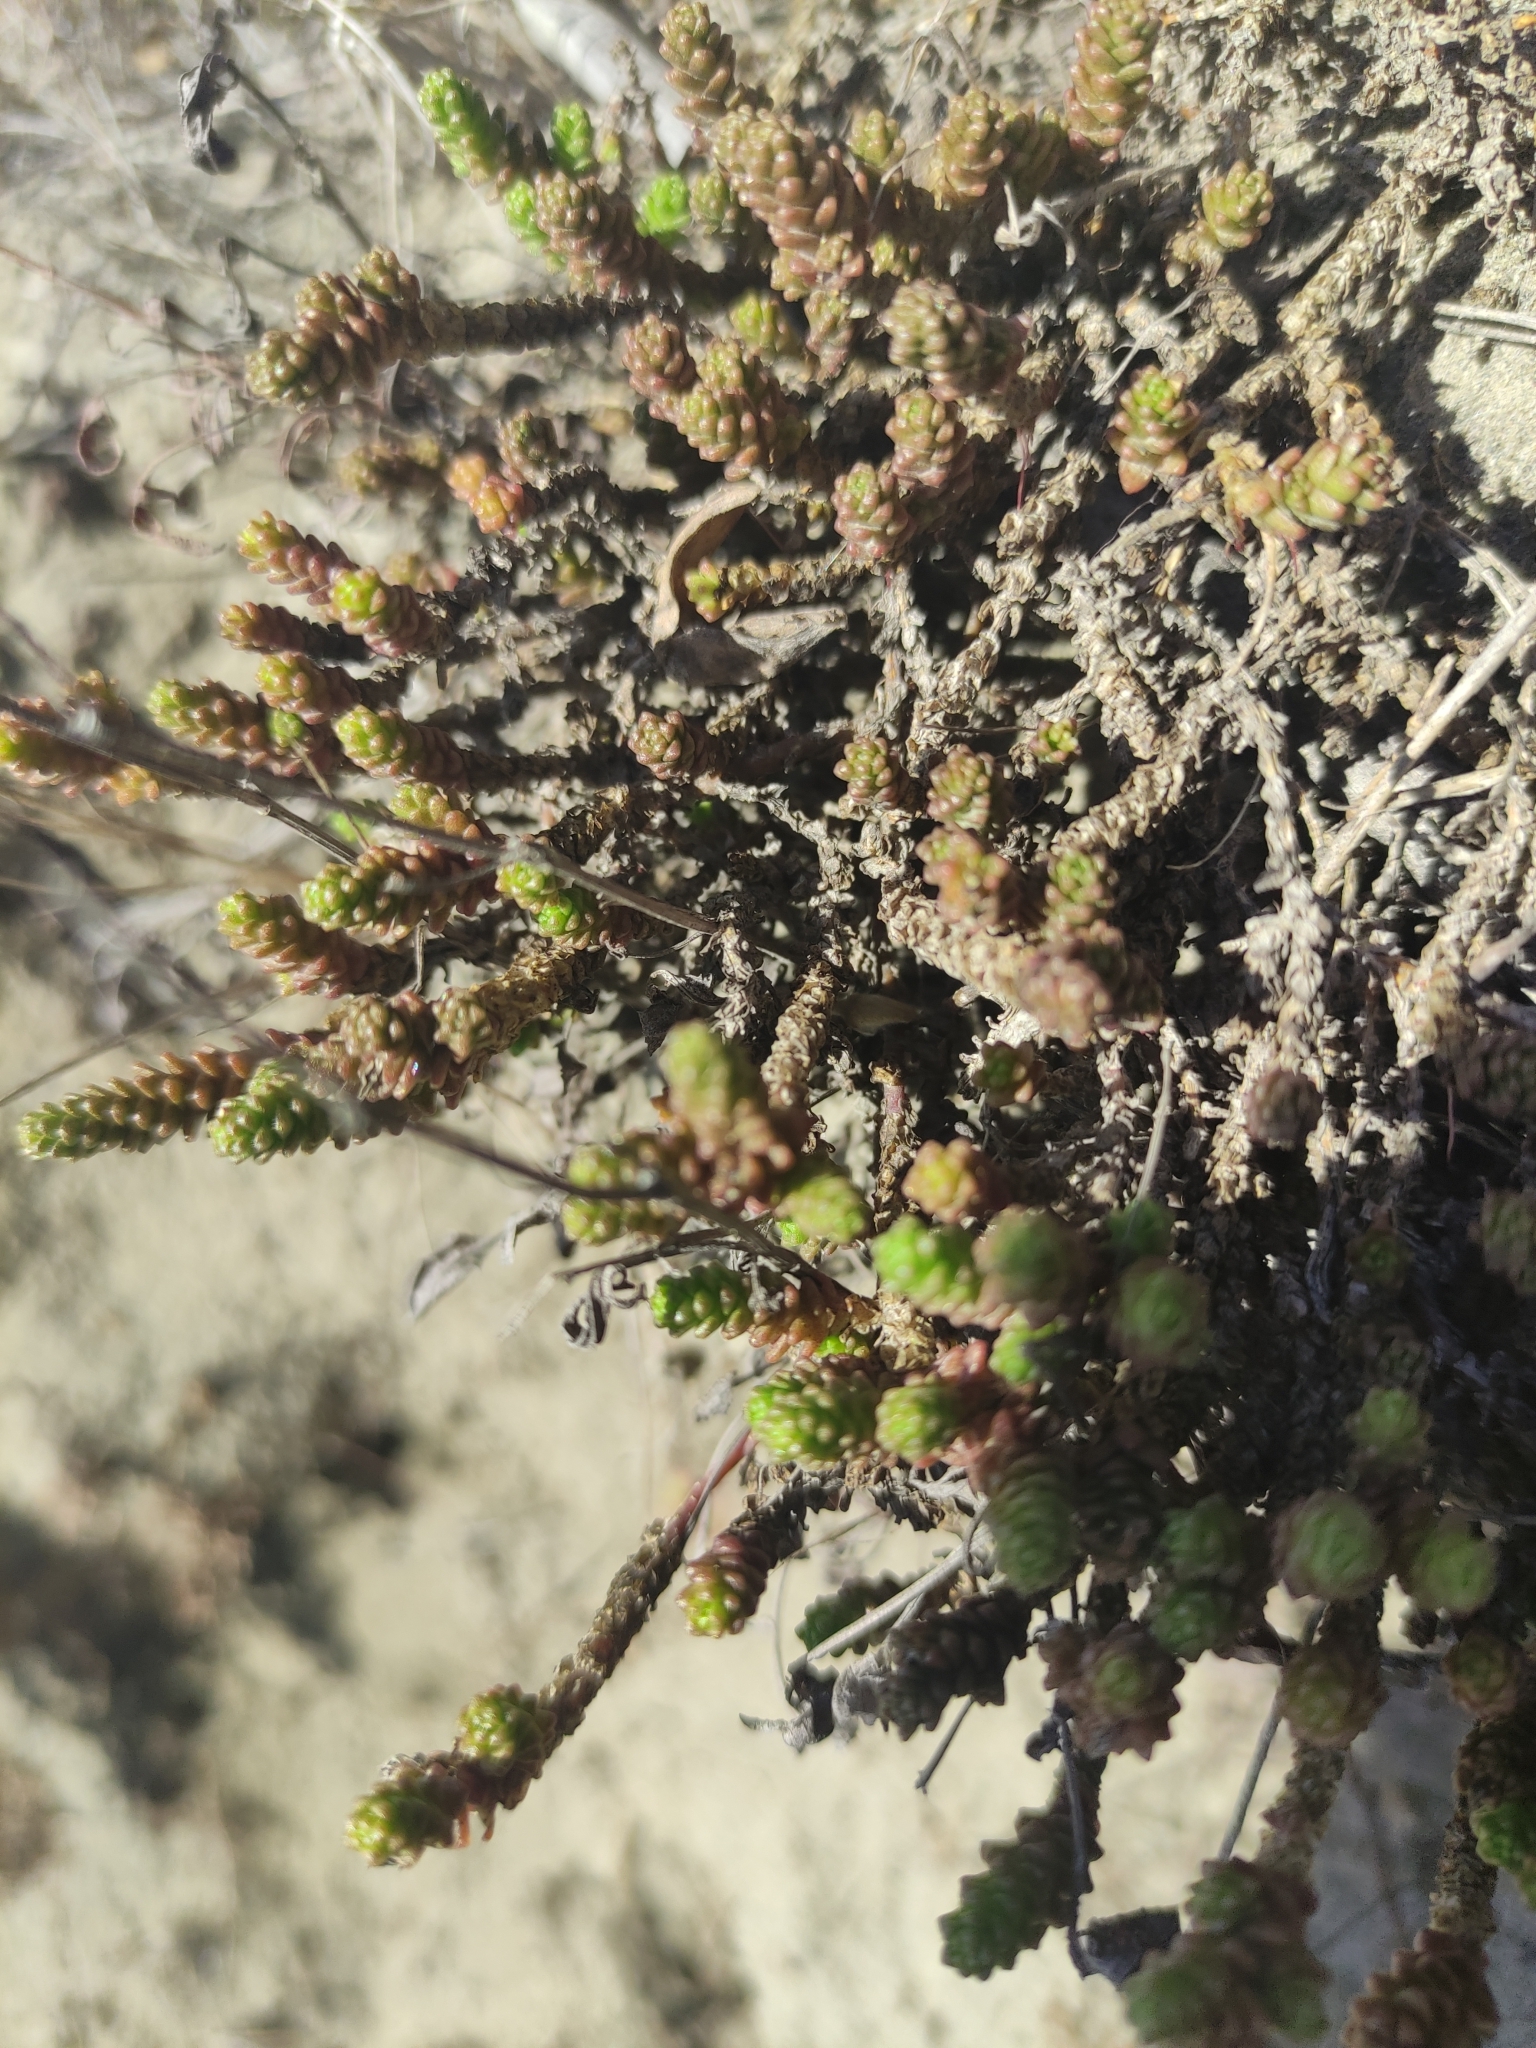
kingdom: Plantae
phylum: Tracheophyta
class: Magnoliopsida
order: Saxifragales
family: Crassulaceae
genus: Sedum
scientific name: Sedum acre
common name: Biting stonecrop
